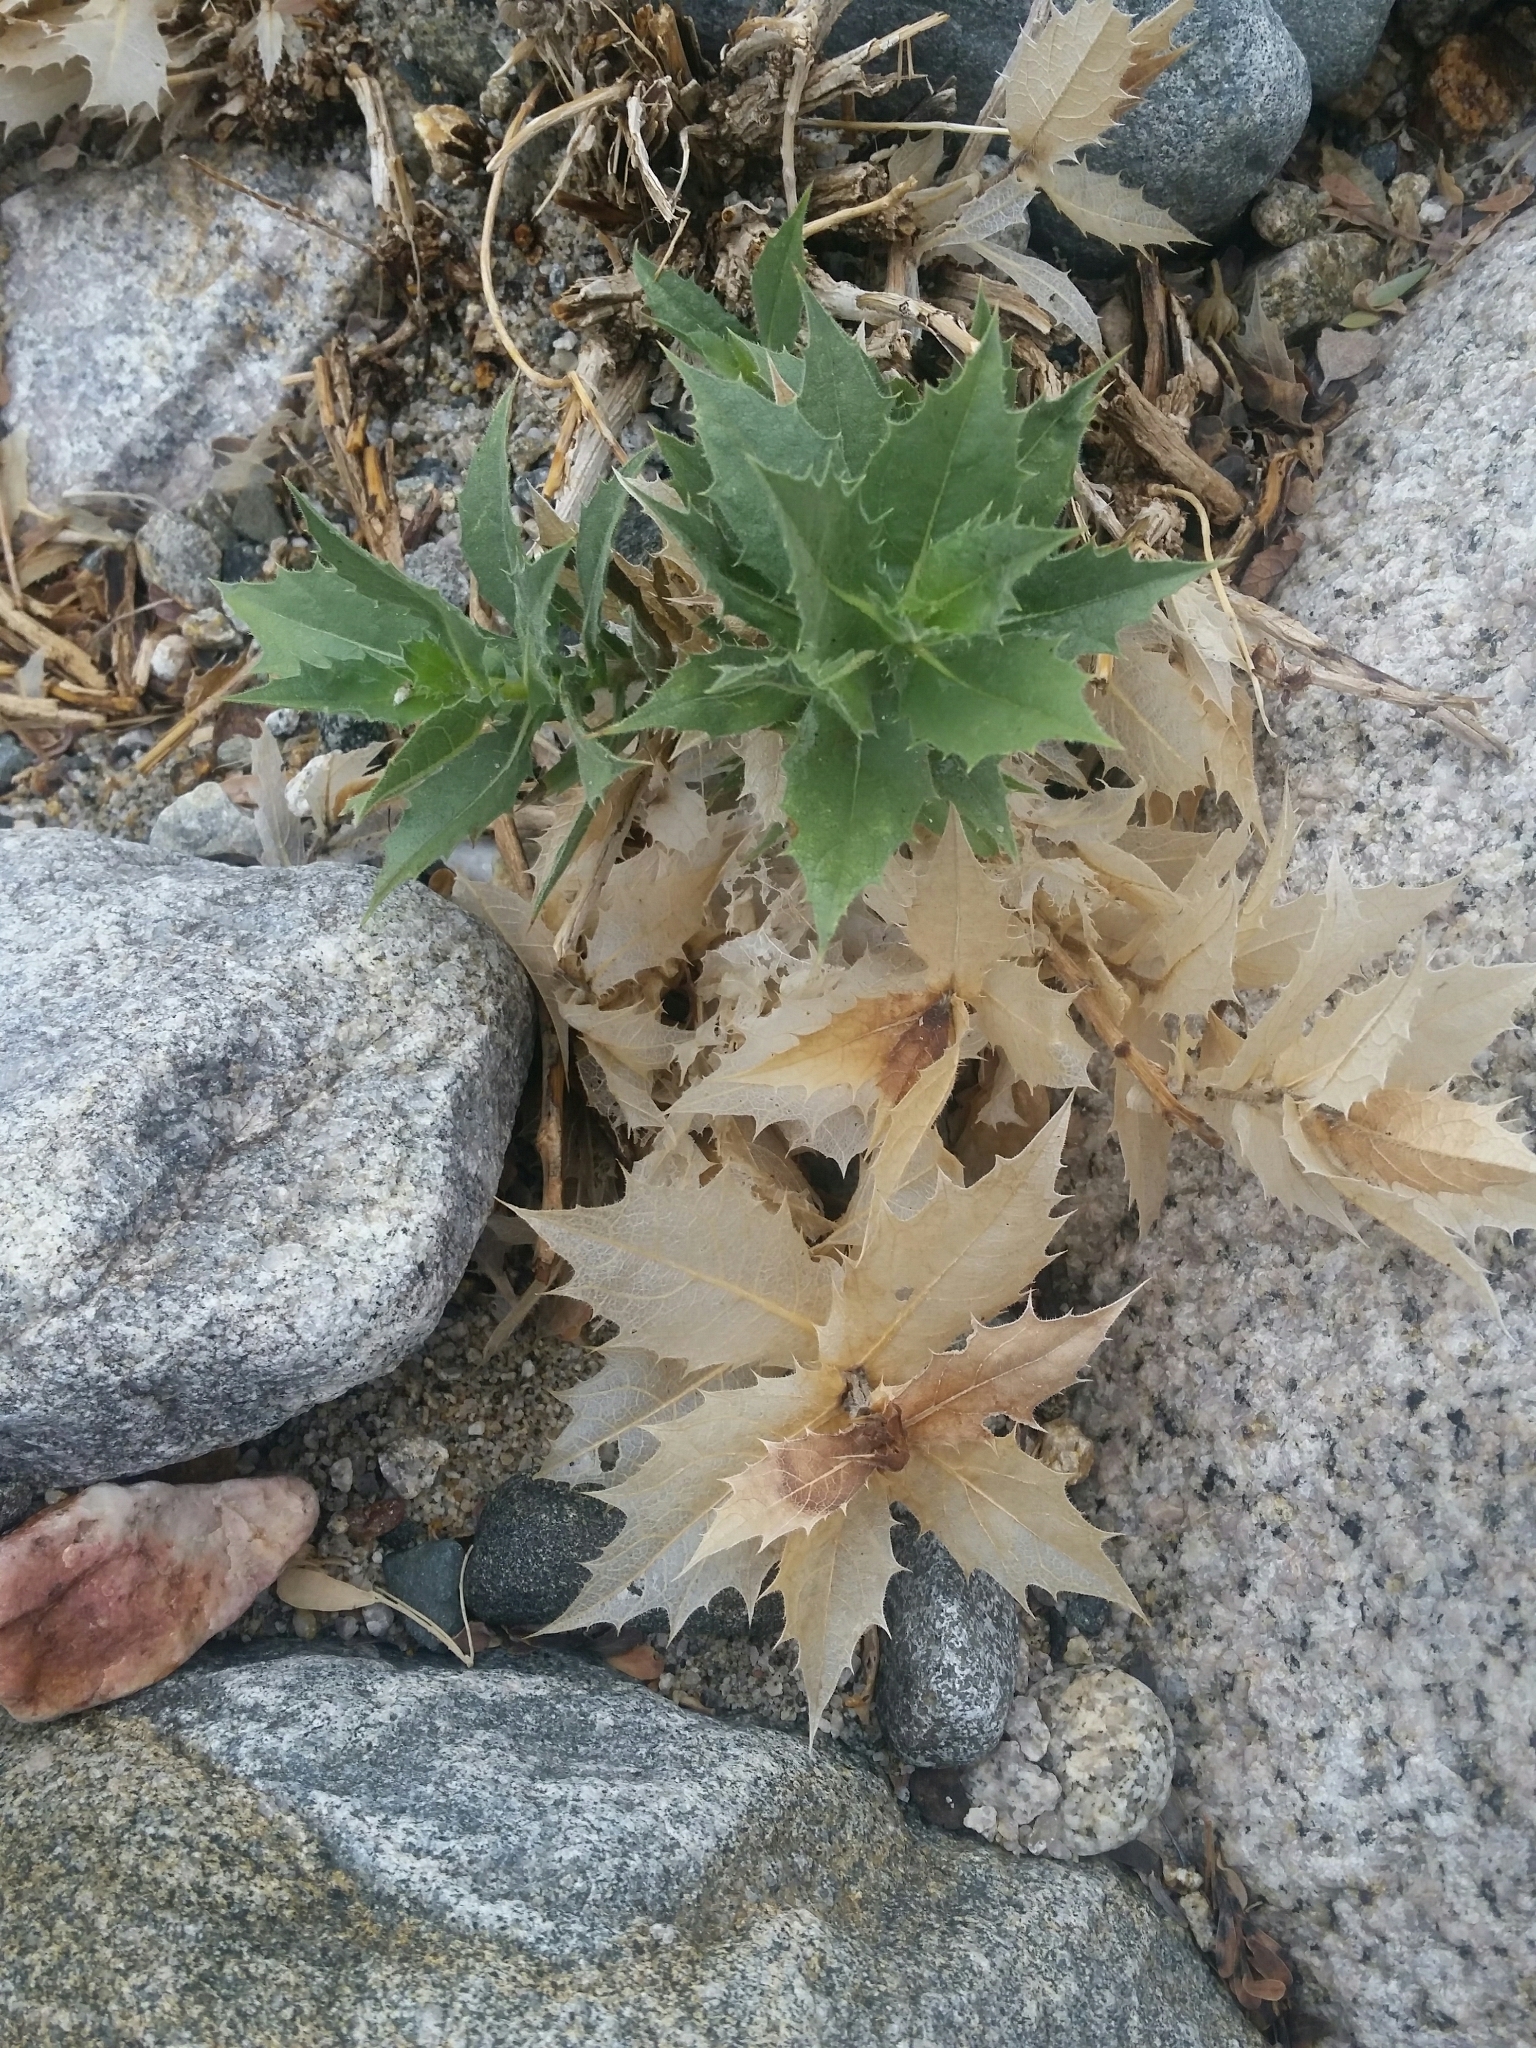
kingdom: Plantae
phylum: Tracheophyta
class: Magnoliopsida
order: Asterales
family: Asteraceae
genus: Ambrosia
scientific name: Ambrosia ilicifolia
